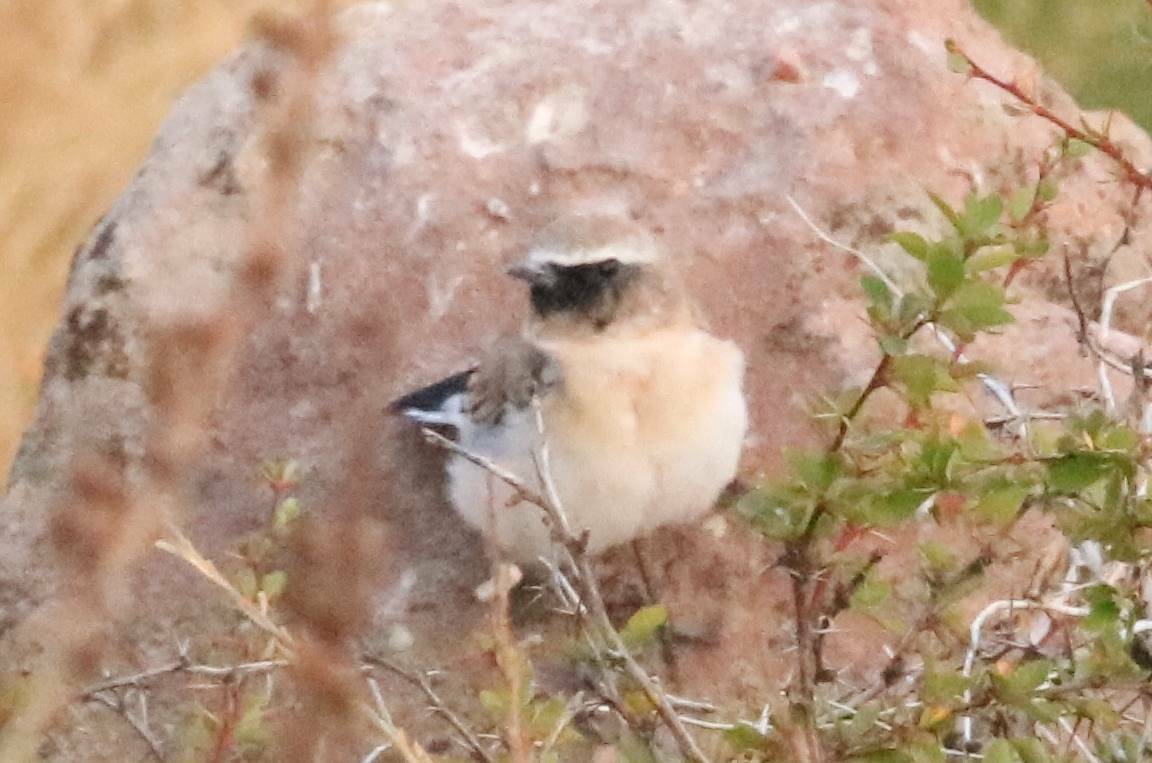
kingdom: Animalia
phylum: Chordata
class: Aves
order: Passeriformes
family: Muscicapidae
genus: Oenanthe
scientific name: Oenanthe oenanthe
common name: Northern wheatear
